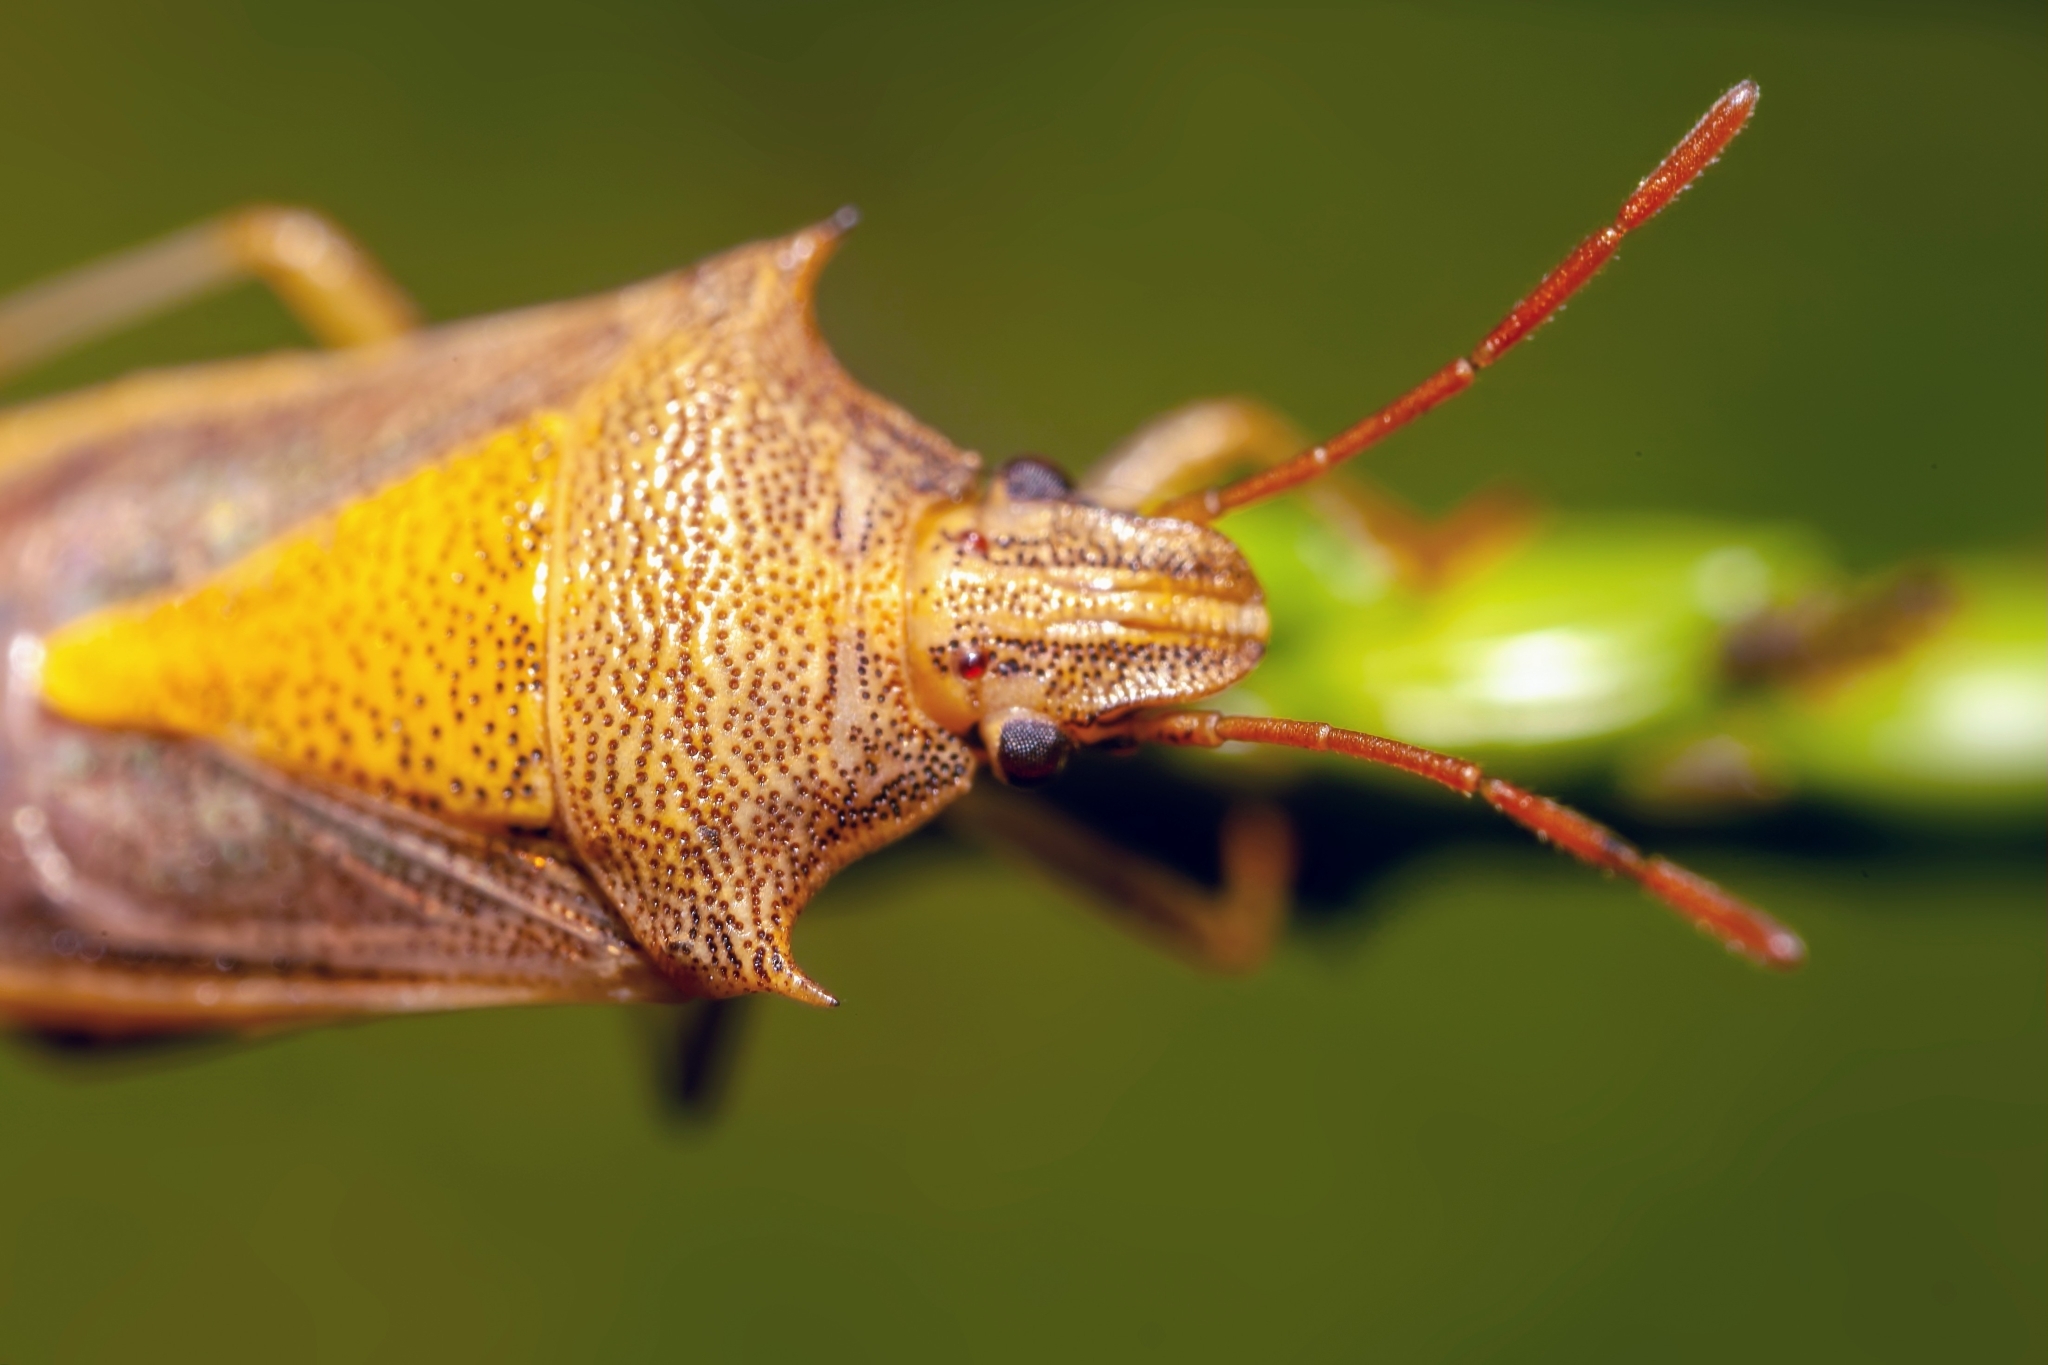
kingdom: Animalia
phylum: Arthropoda
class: Insecta
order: Hemiptera
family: Pentatomidae
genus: Oebalus
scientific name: Oebalus pugnax
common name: Rice stink bug
